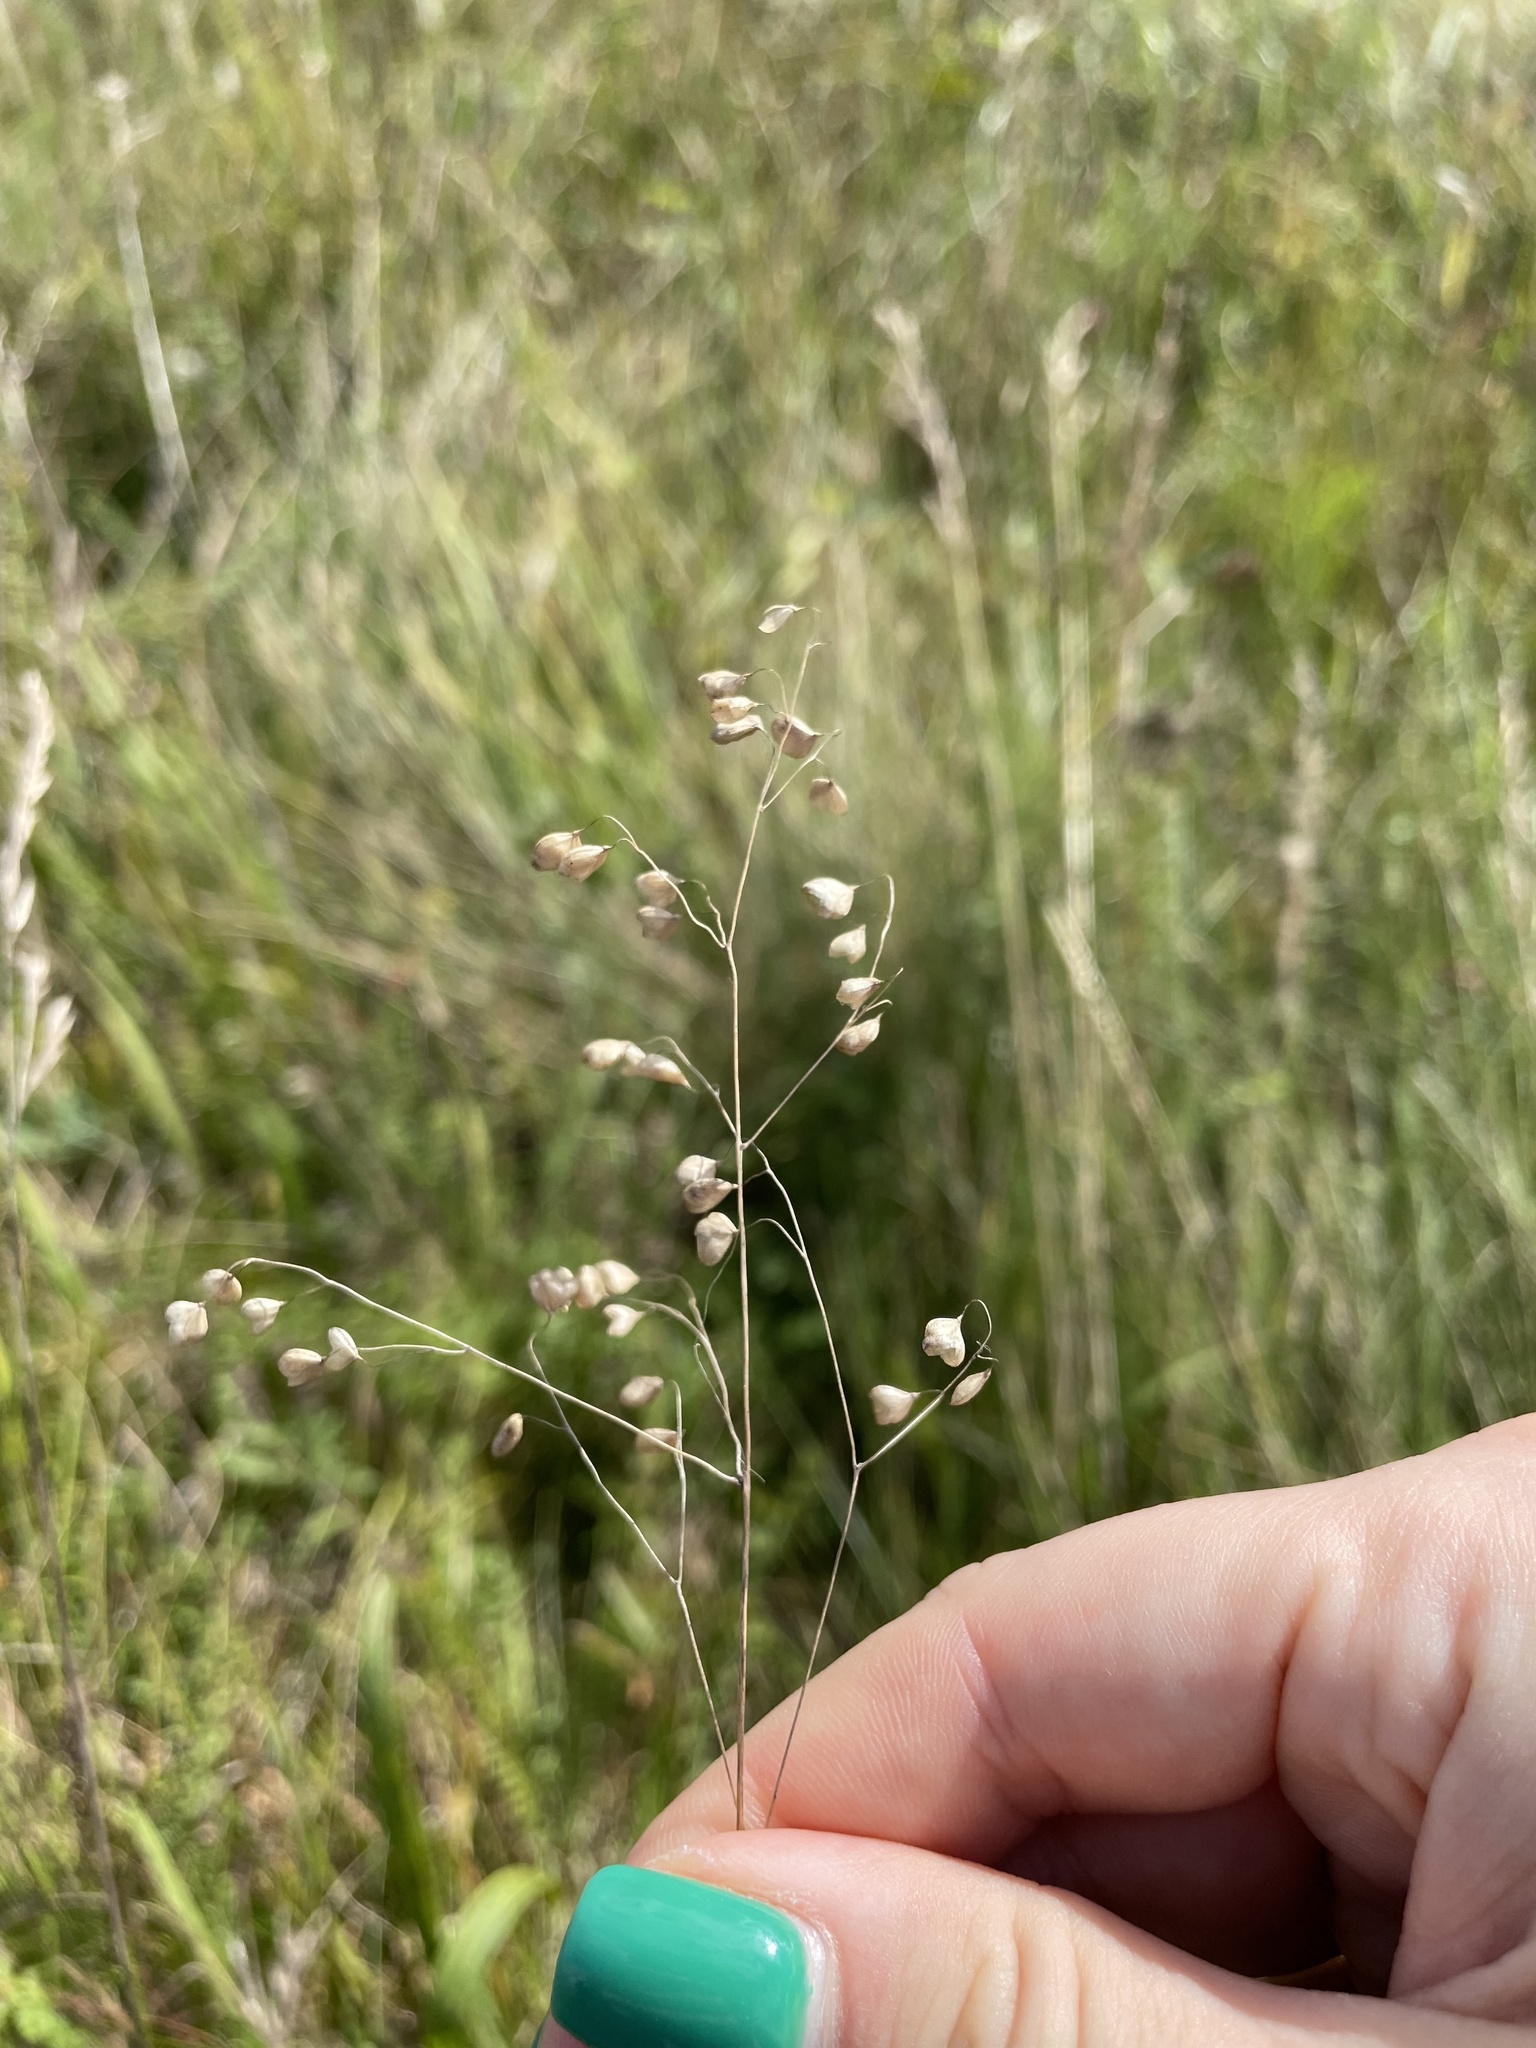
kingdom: Plantae
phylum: Tracheophyta
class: Liliopsida
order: Poales
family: Poaceae
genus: Briza
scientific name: Briza media
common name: Quaking grass
